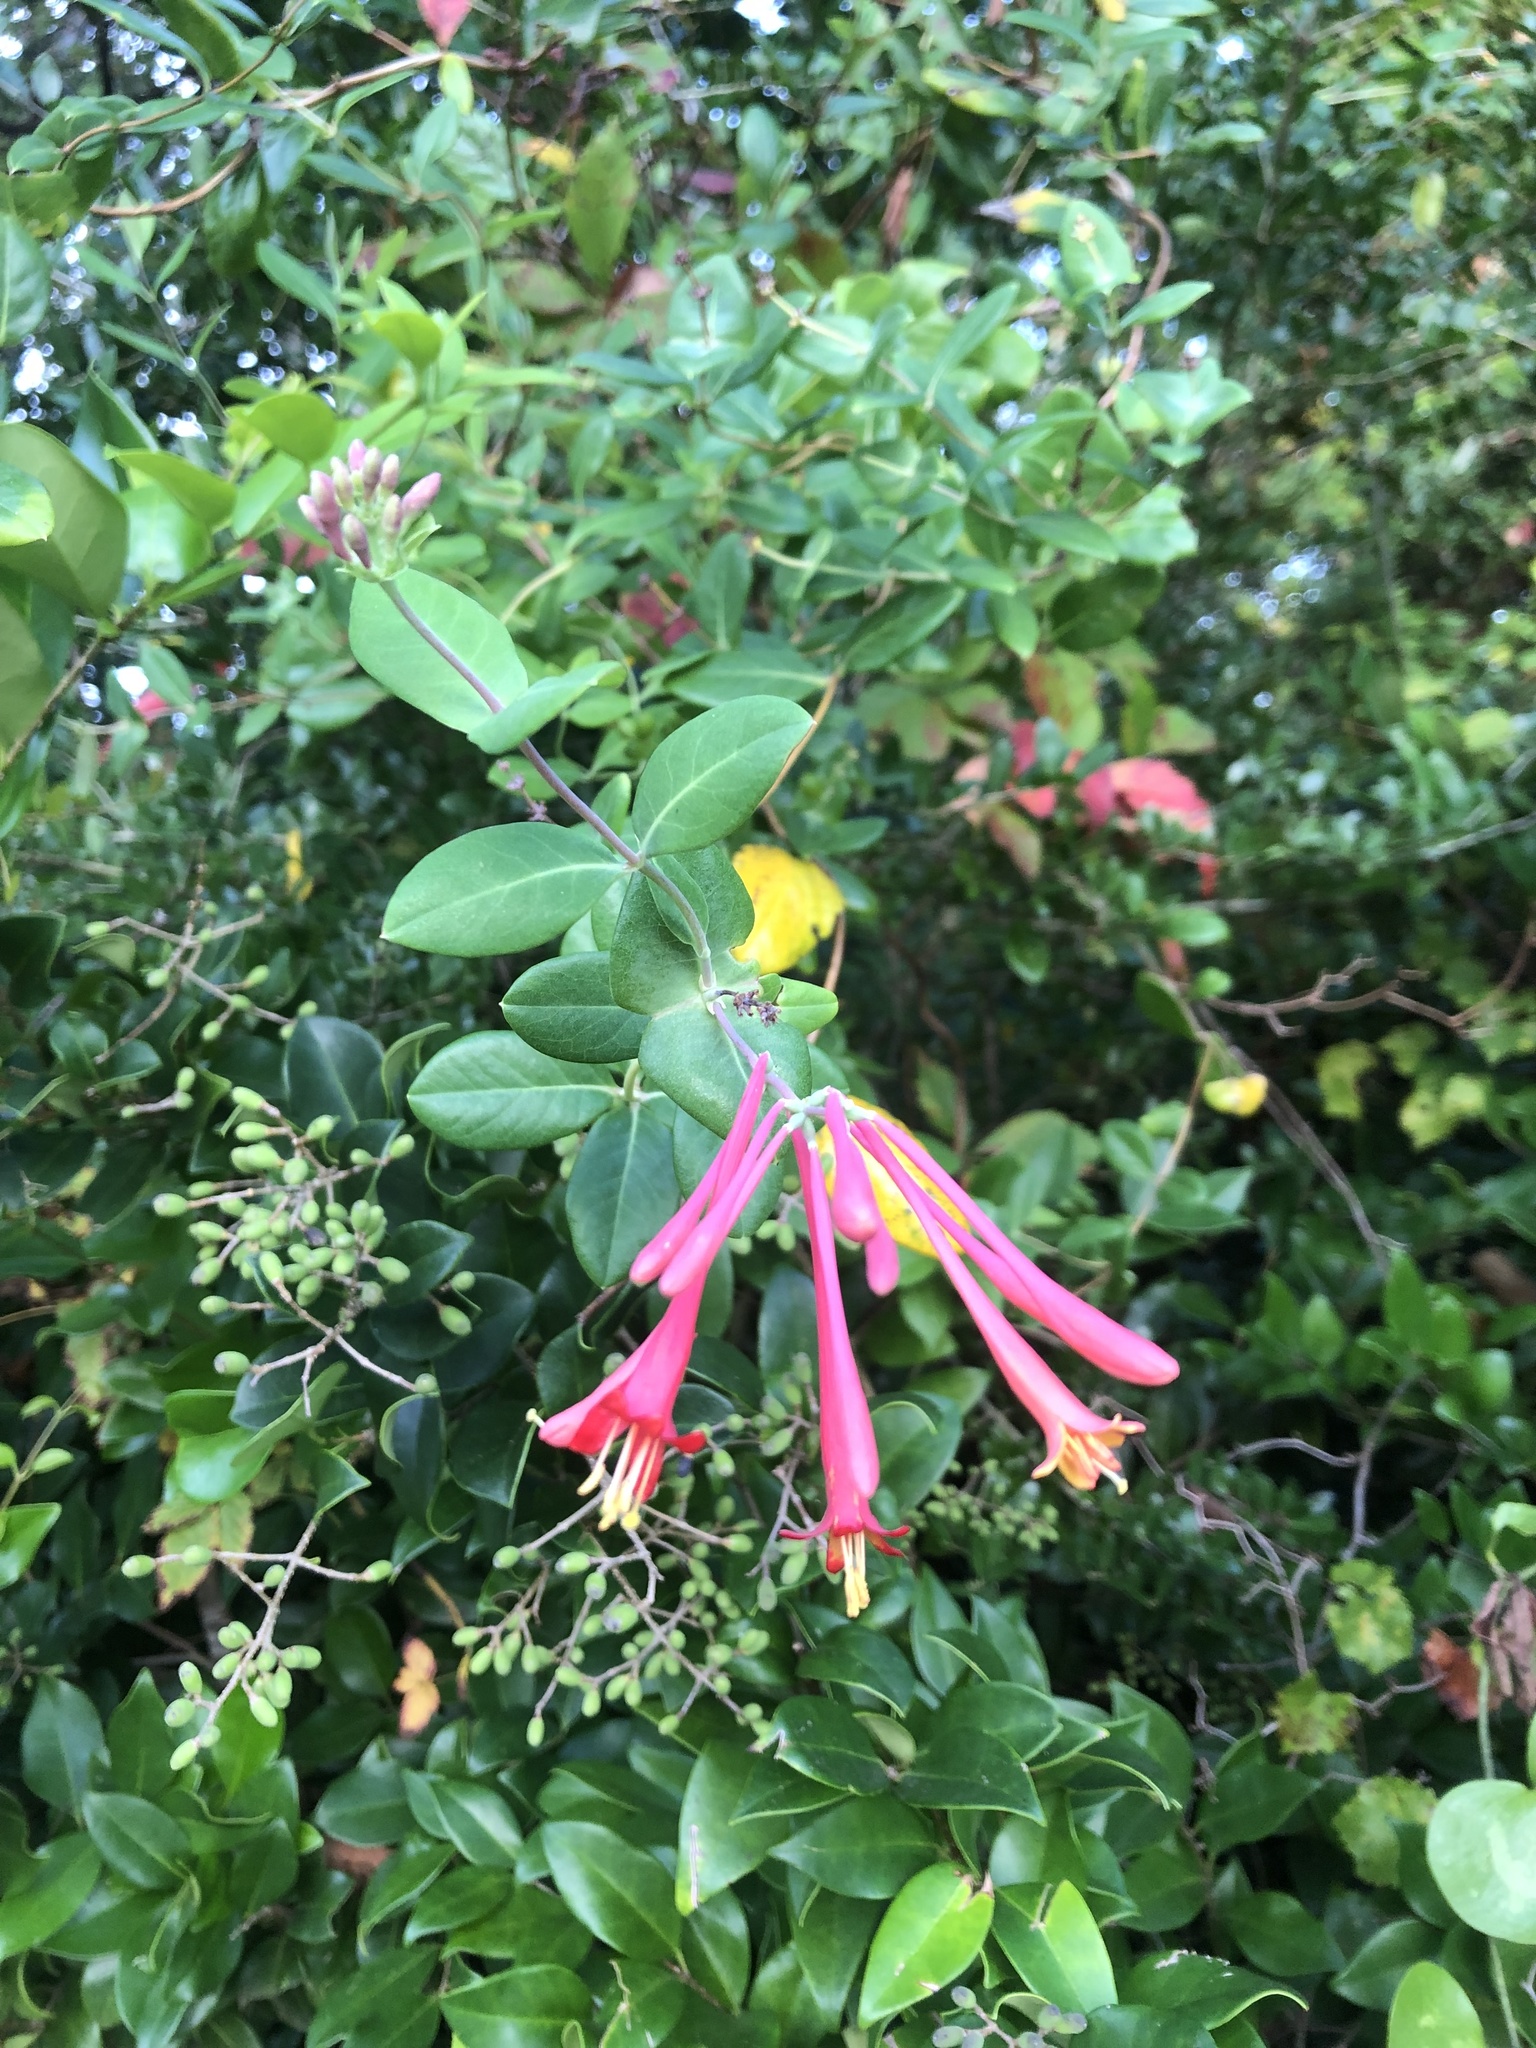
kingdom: Plantae
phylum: Tracheophyta
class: Magnoliopsida
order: Dipsacales
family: Caprifoliaceae
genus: Lonicera
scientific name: Lonicera sempervirens
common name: Coral honeysuckle
